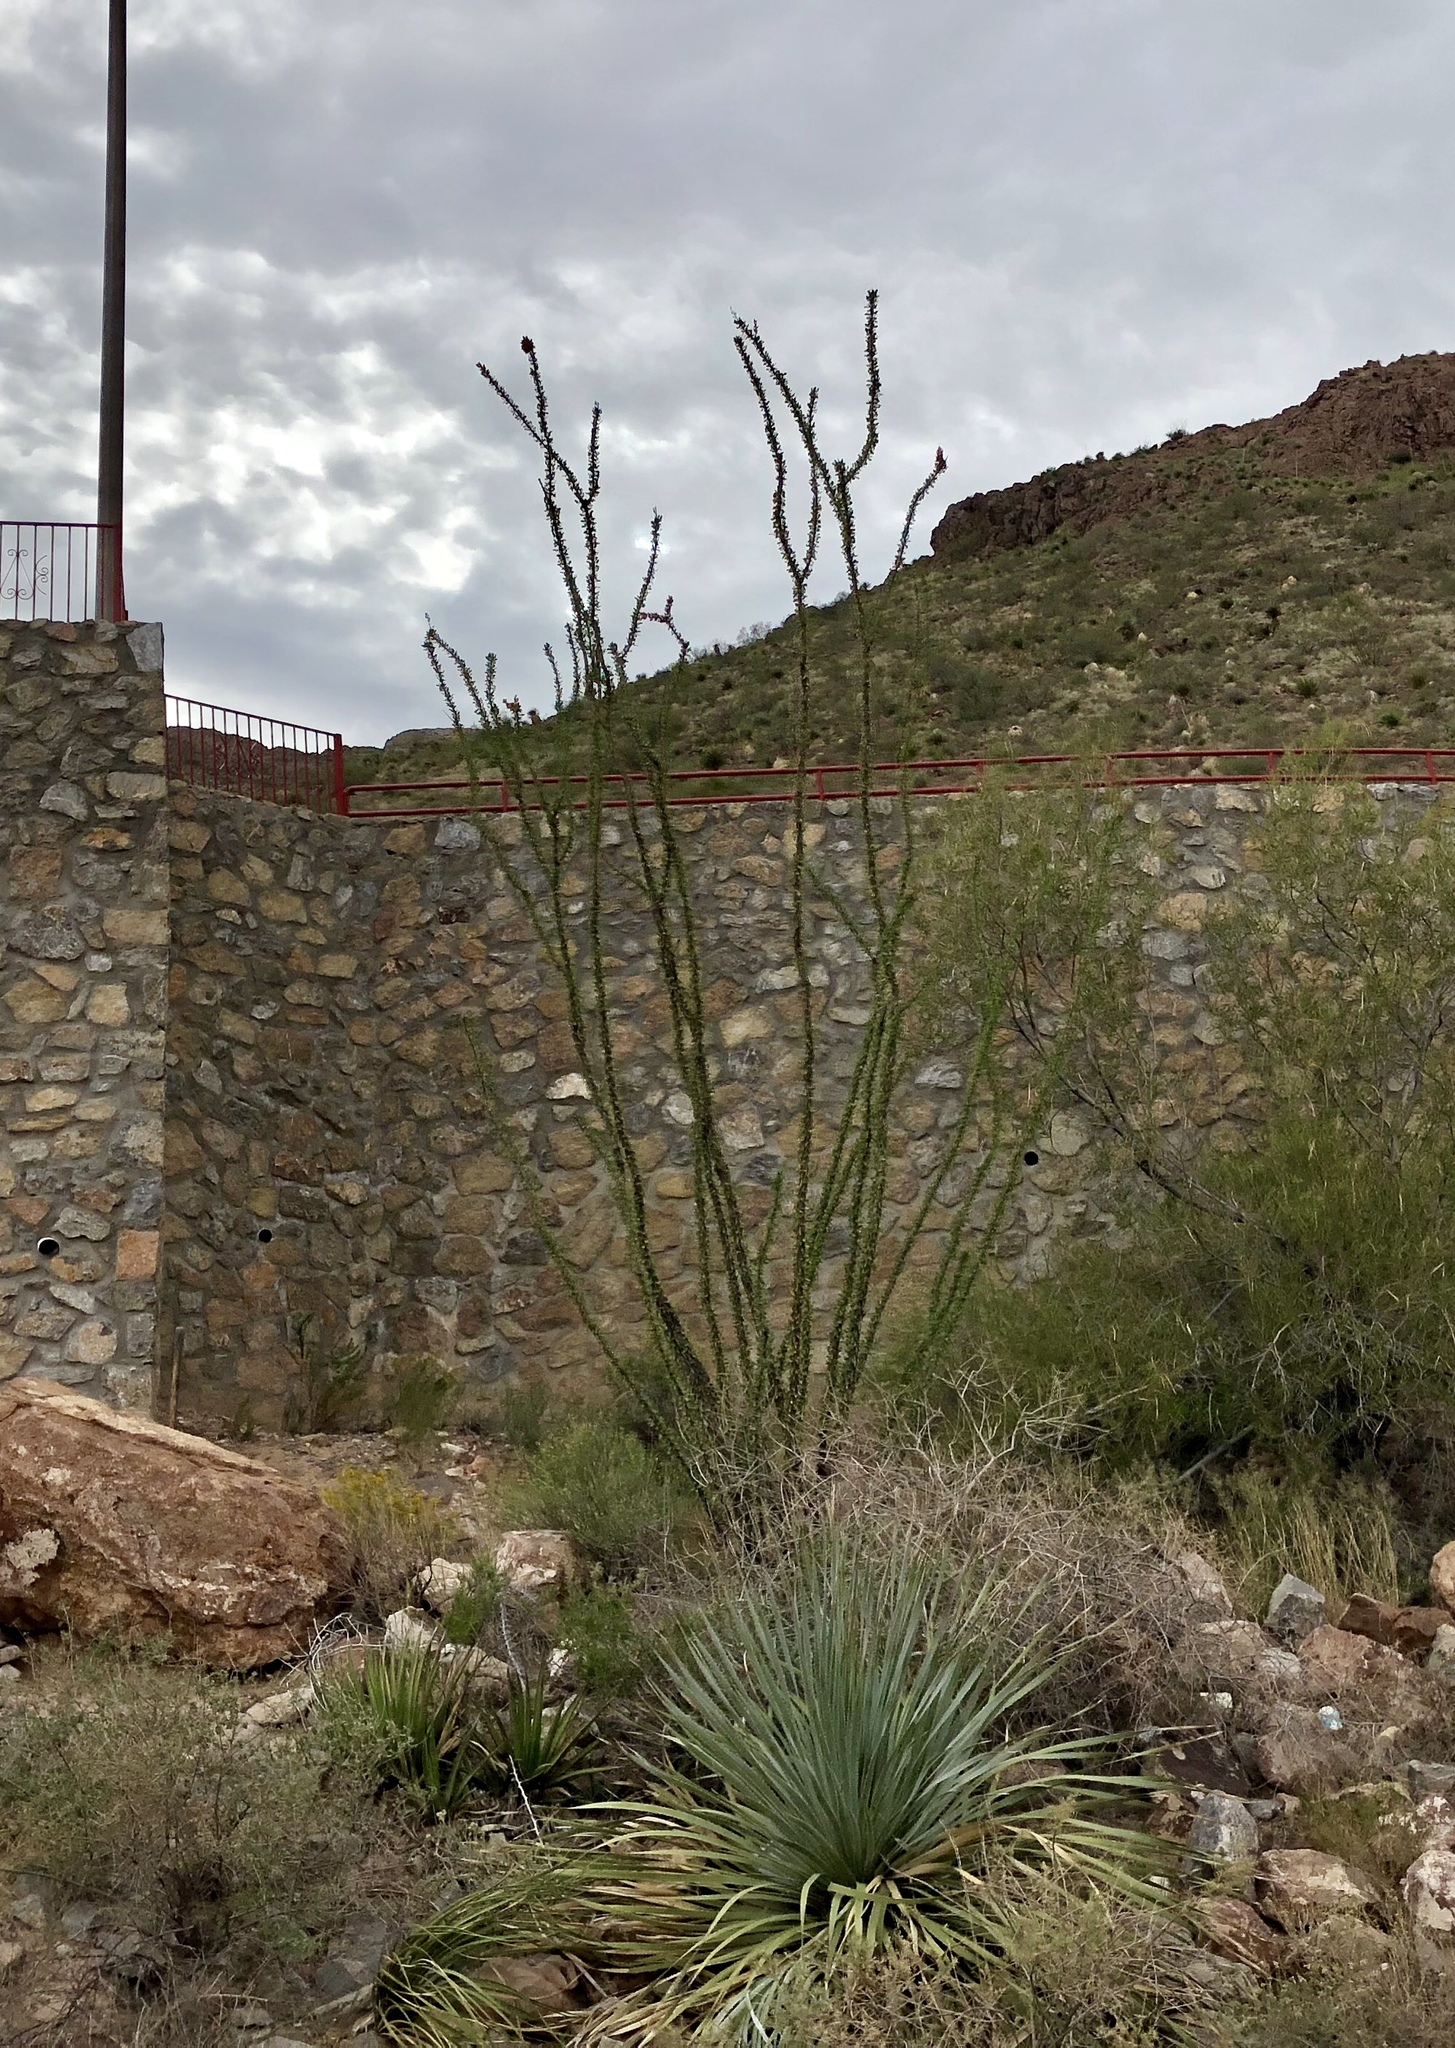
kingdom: Plantae
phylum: Tracheophyta
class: Magnoliopsida
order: Ericales
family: Fouquieriaceae
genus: Fouquieria
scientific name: Fouquieria splendens
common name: Vine-cactus
